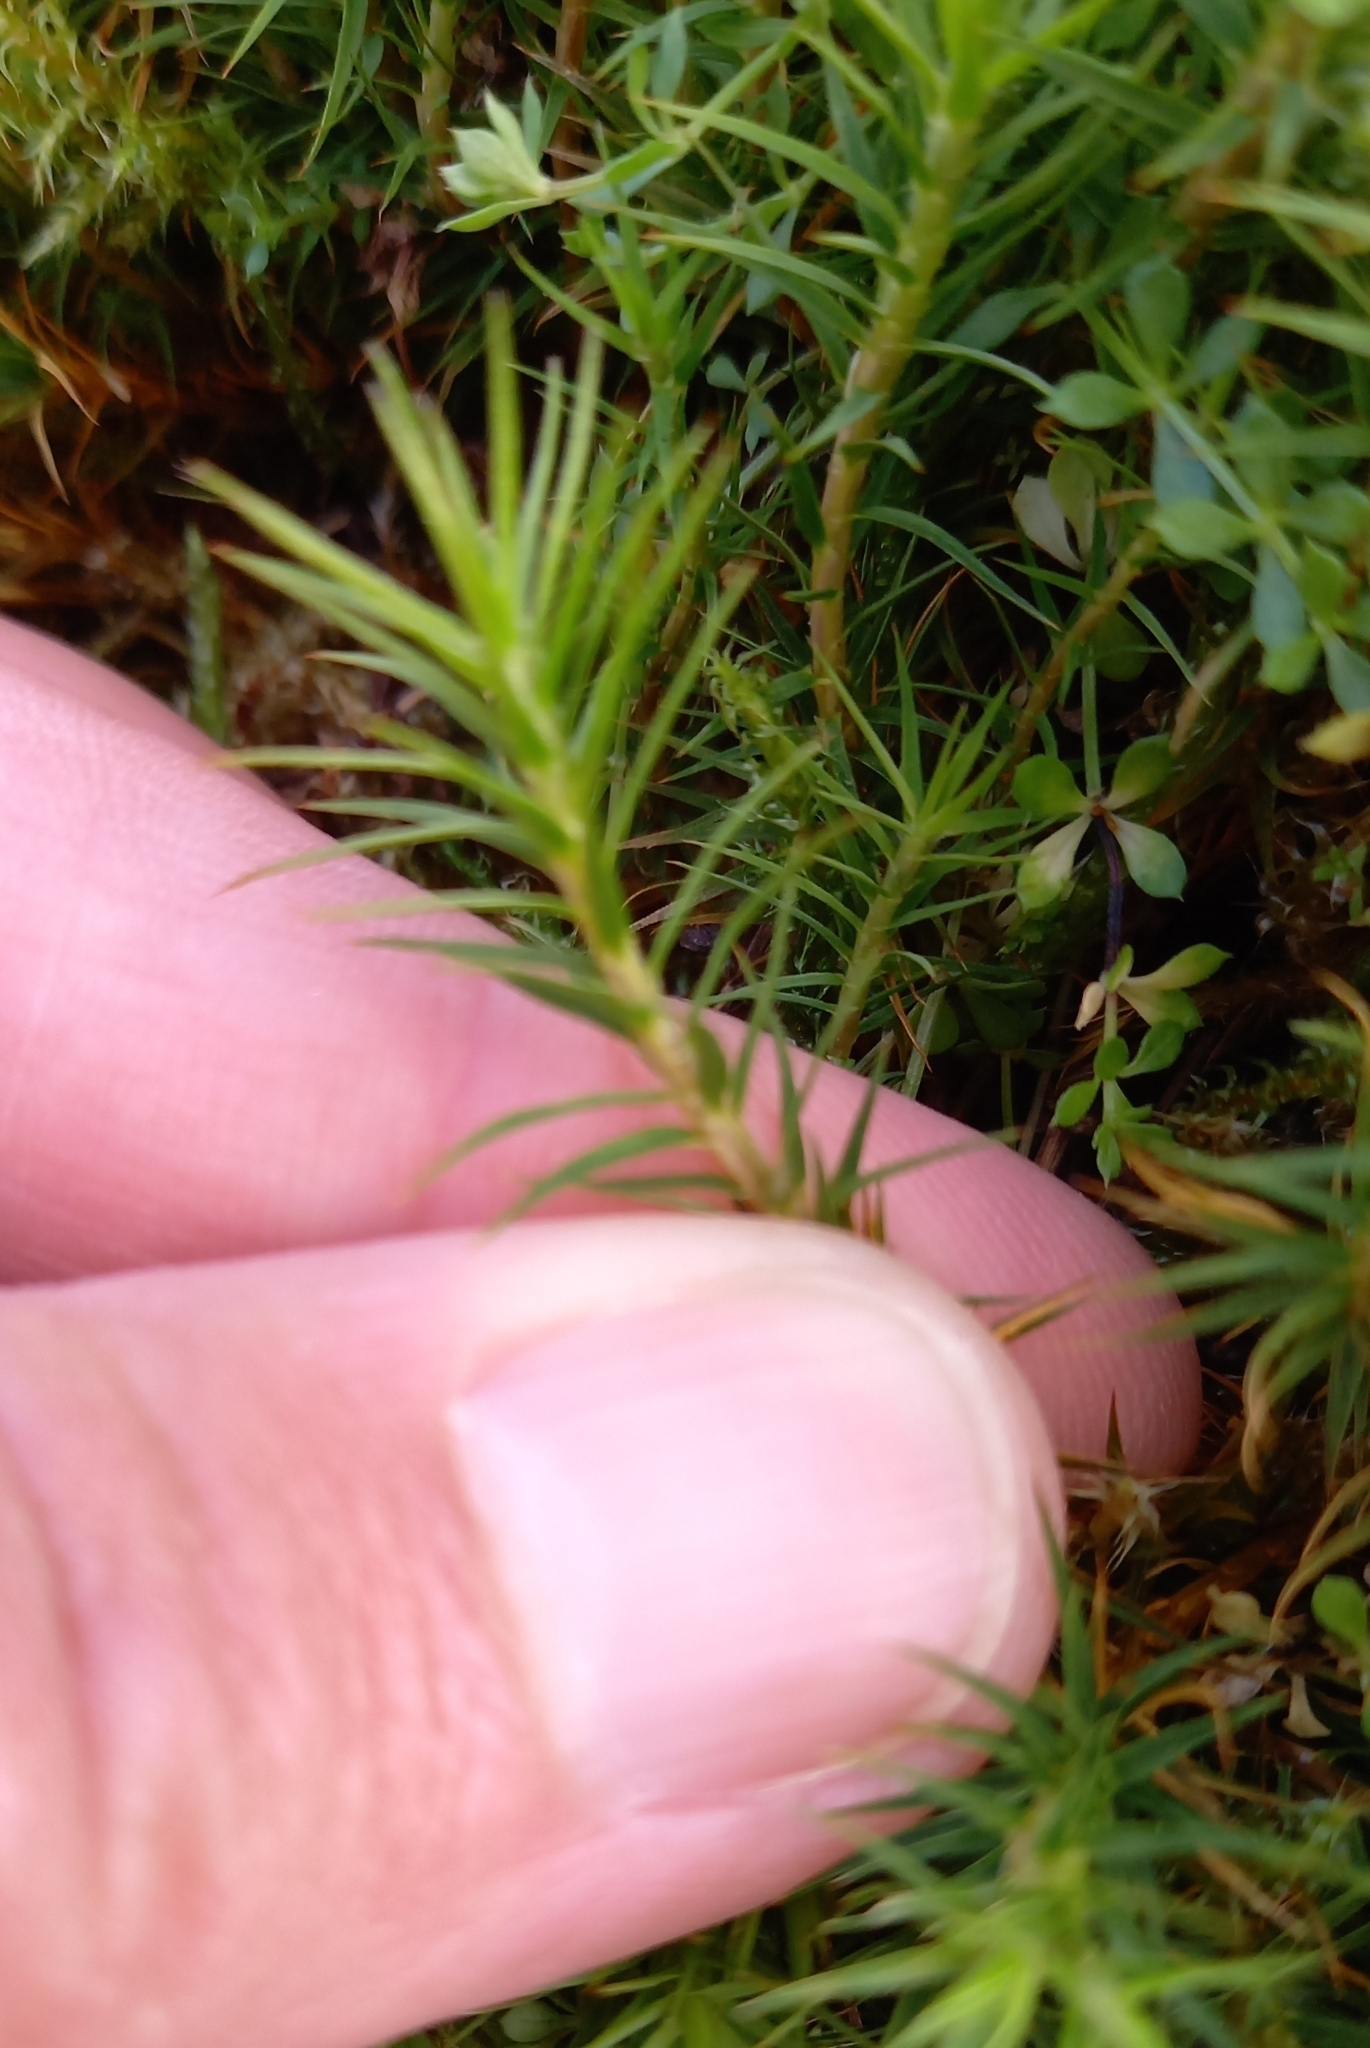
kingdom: Plantae
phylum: Bryophyta
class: Polytrichopsida
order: Polytrichales
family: Polytrichaceae
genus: Polytrichum
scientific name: Polytrichum formosum
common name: Bank haircap moss
